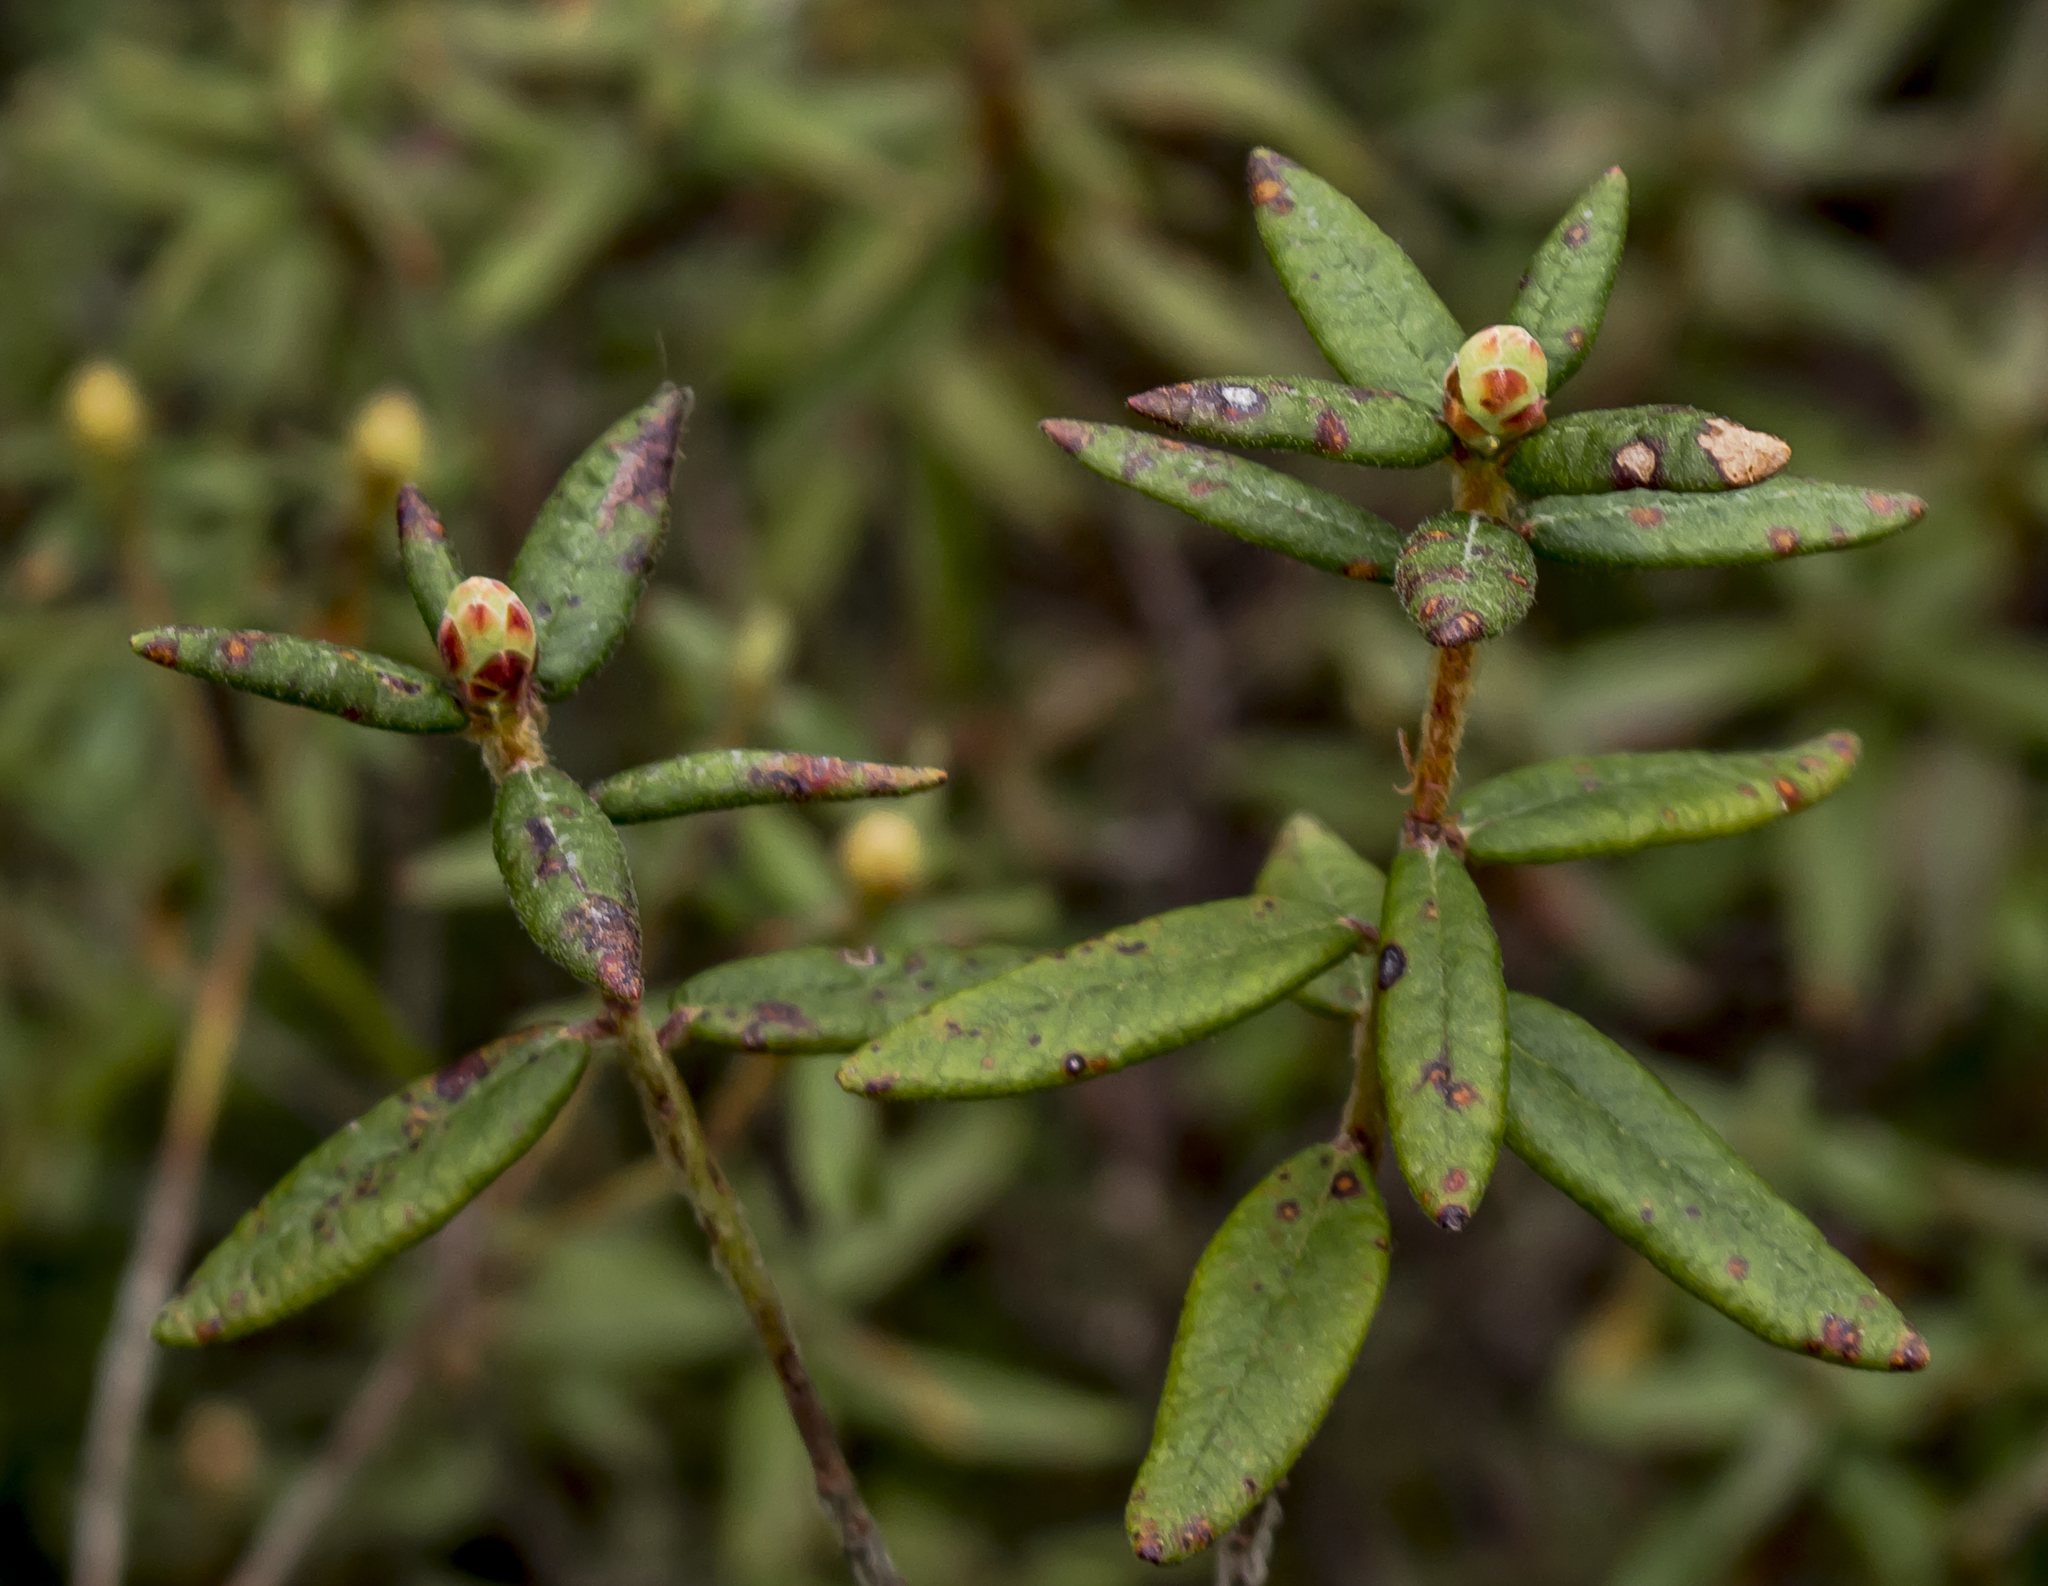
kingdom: Plantae
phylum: Tracheophyta
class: Magnoliopsida
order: Ericales
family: Ericaceae
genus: Rhododendron
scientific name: Rhododendron groenlandicum
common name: Bog labrador tea
